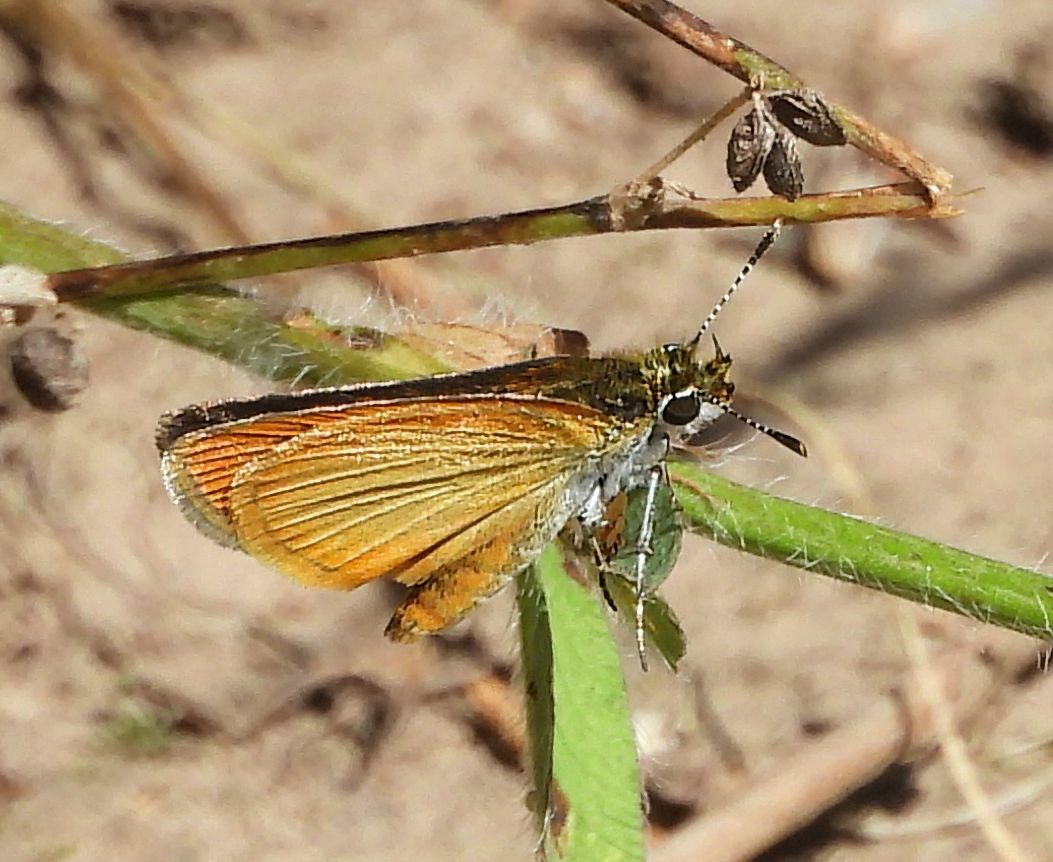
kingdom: Animalia
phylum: Arthropoda
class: Insecta
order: Lepidoptera
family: Hesperiidae
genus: Ancyloxypha
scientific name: Ancyloxypha numitor
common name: Least skipper
